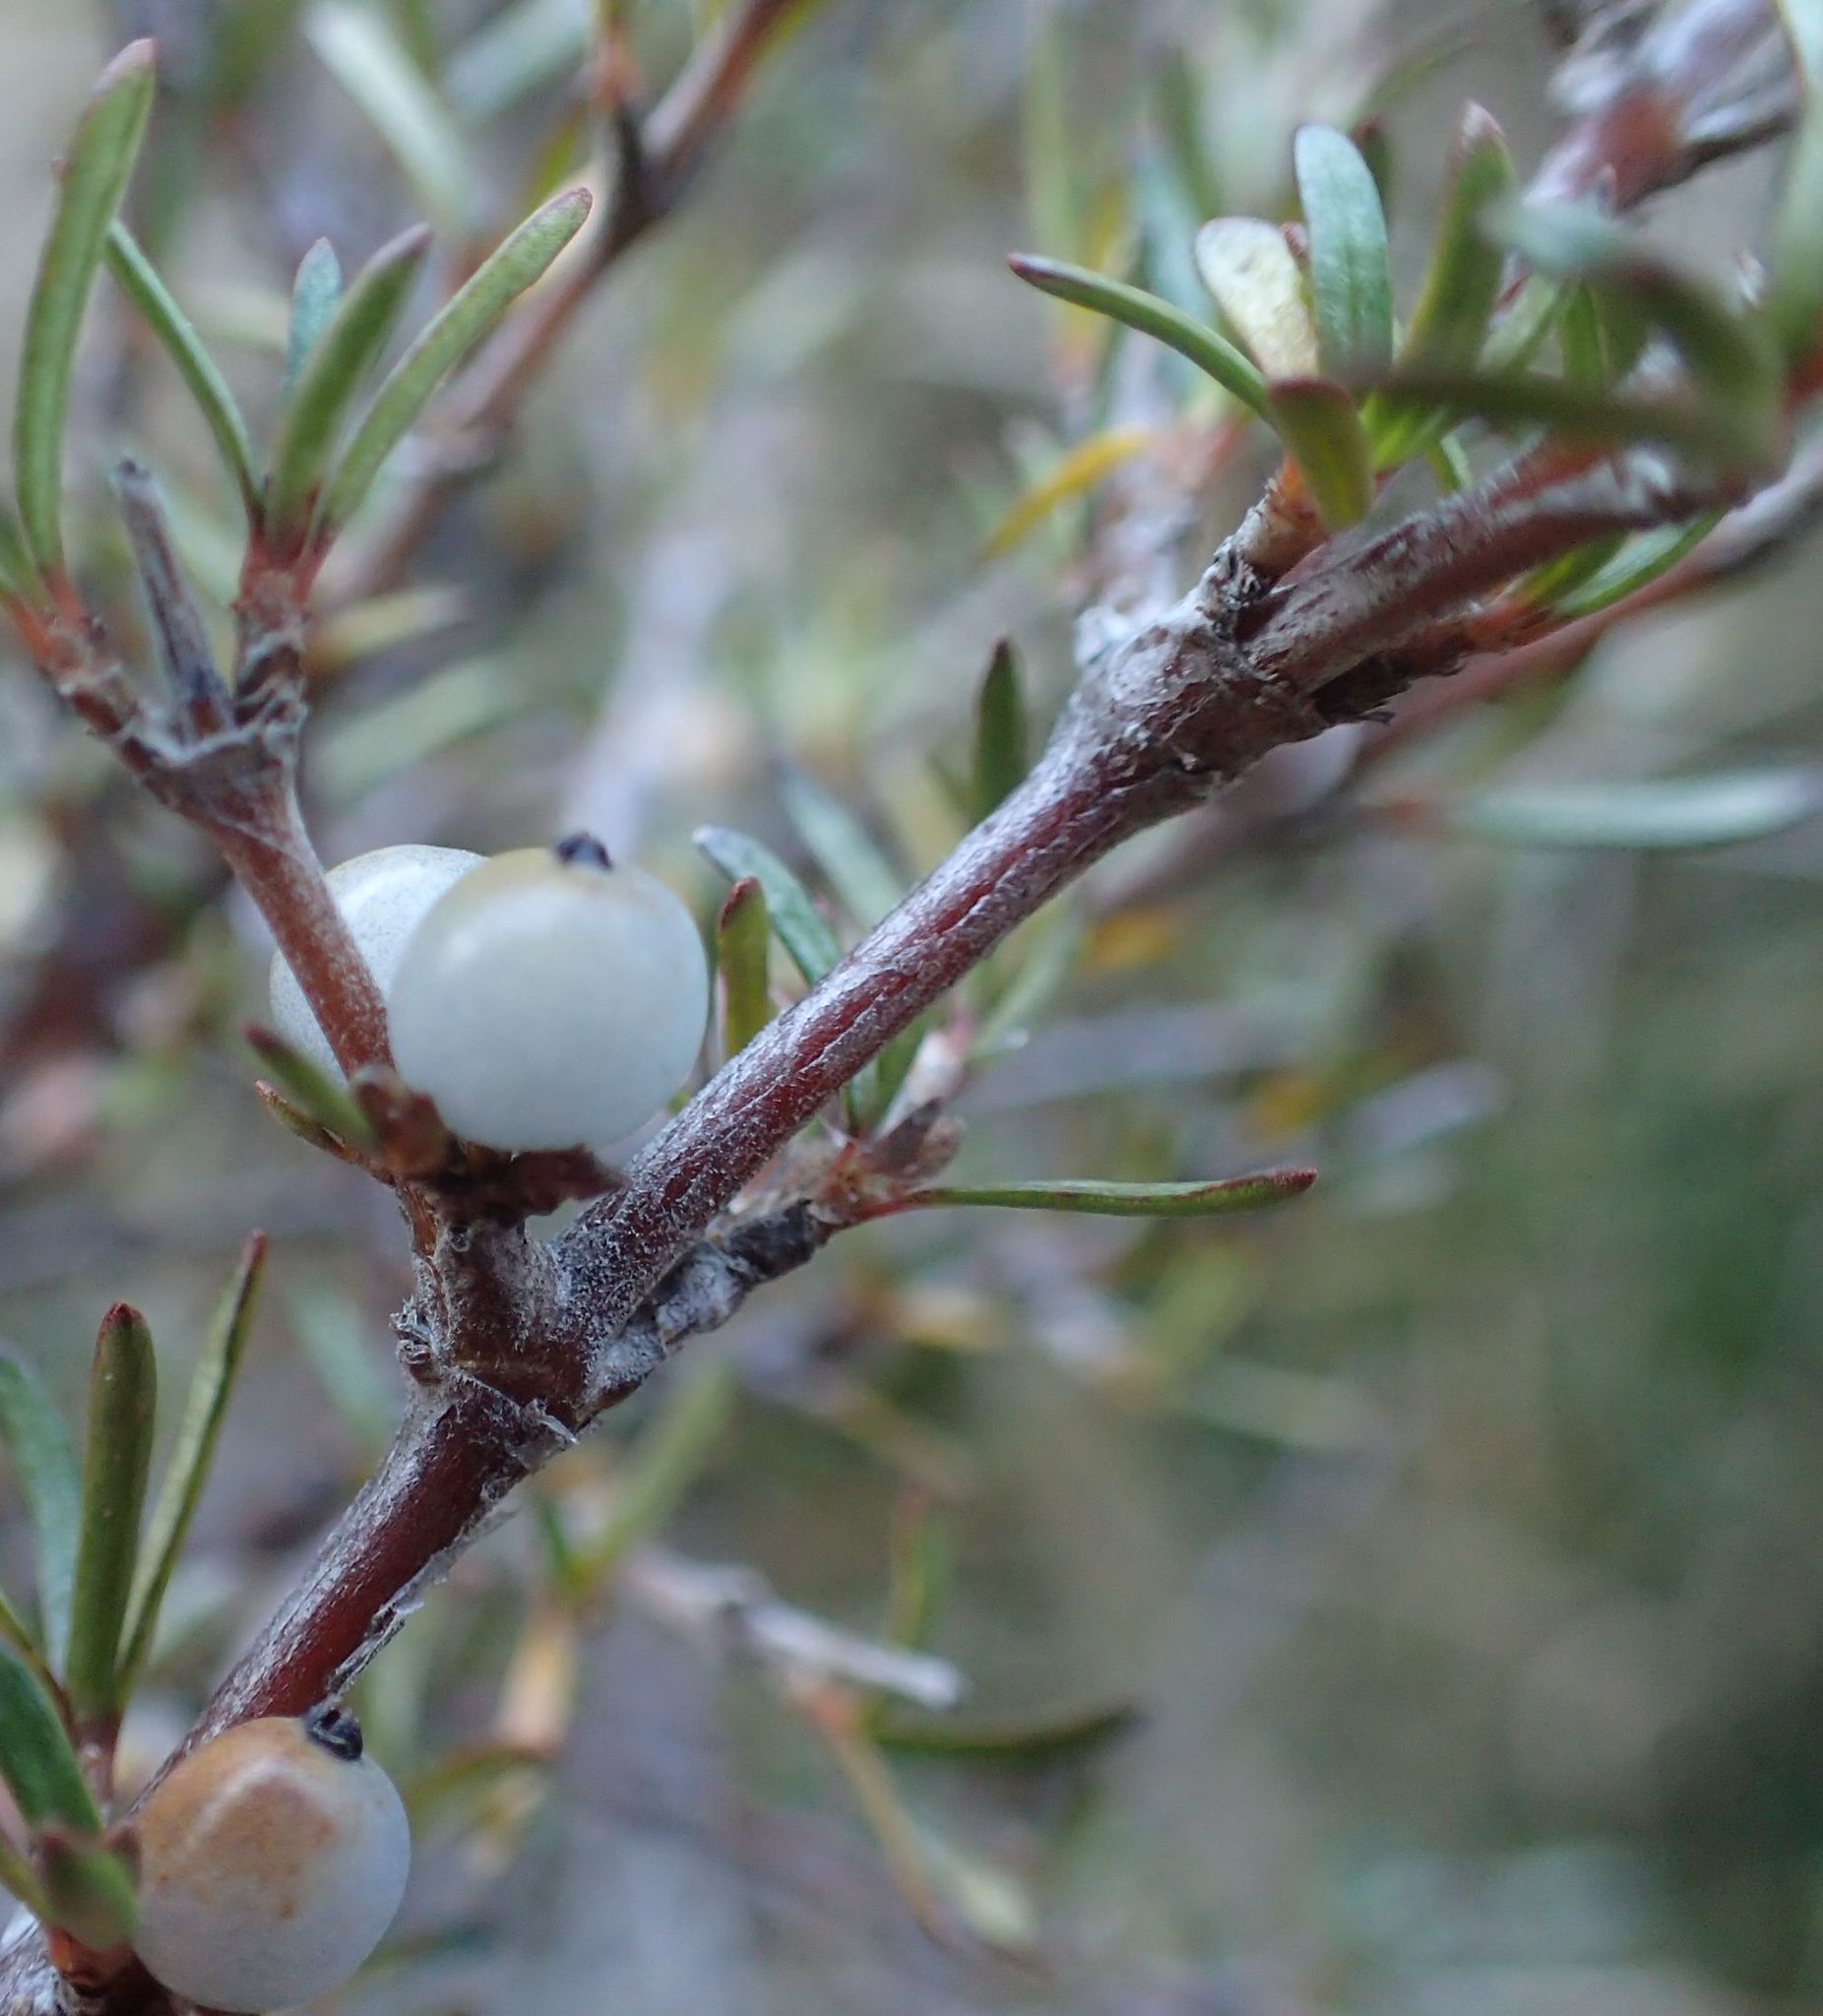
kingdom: Plantae
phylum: Tracheophyta
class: Magnoliopsida
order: Gentianales
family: Rubiaceae
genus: Coprosma
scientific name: Coprosma rugosa
